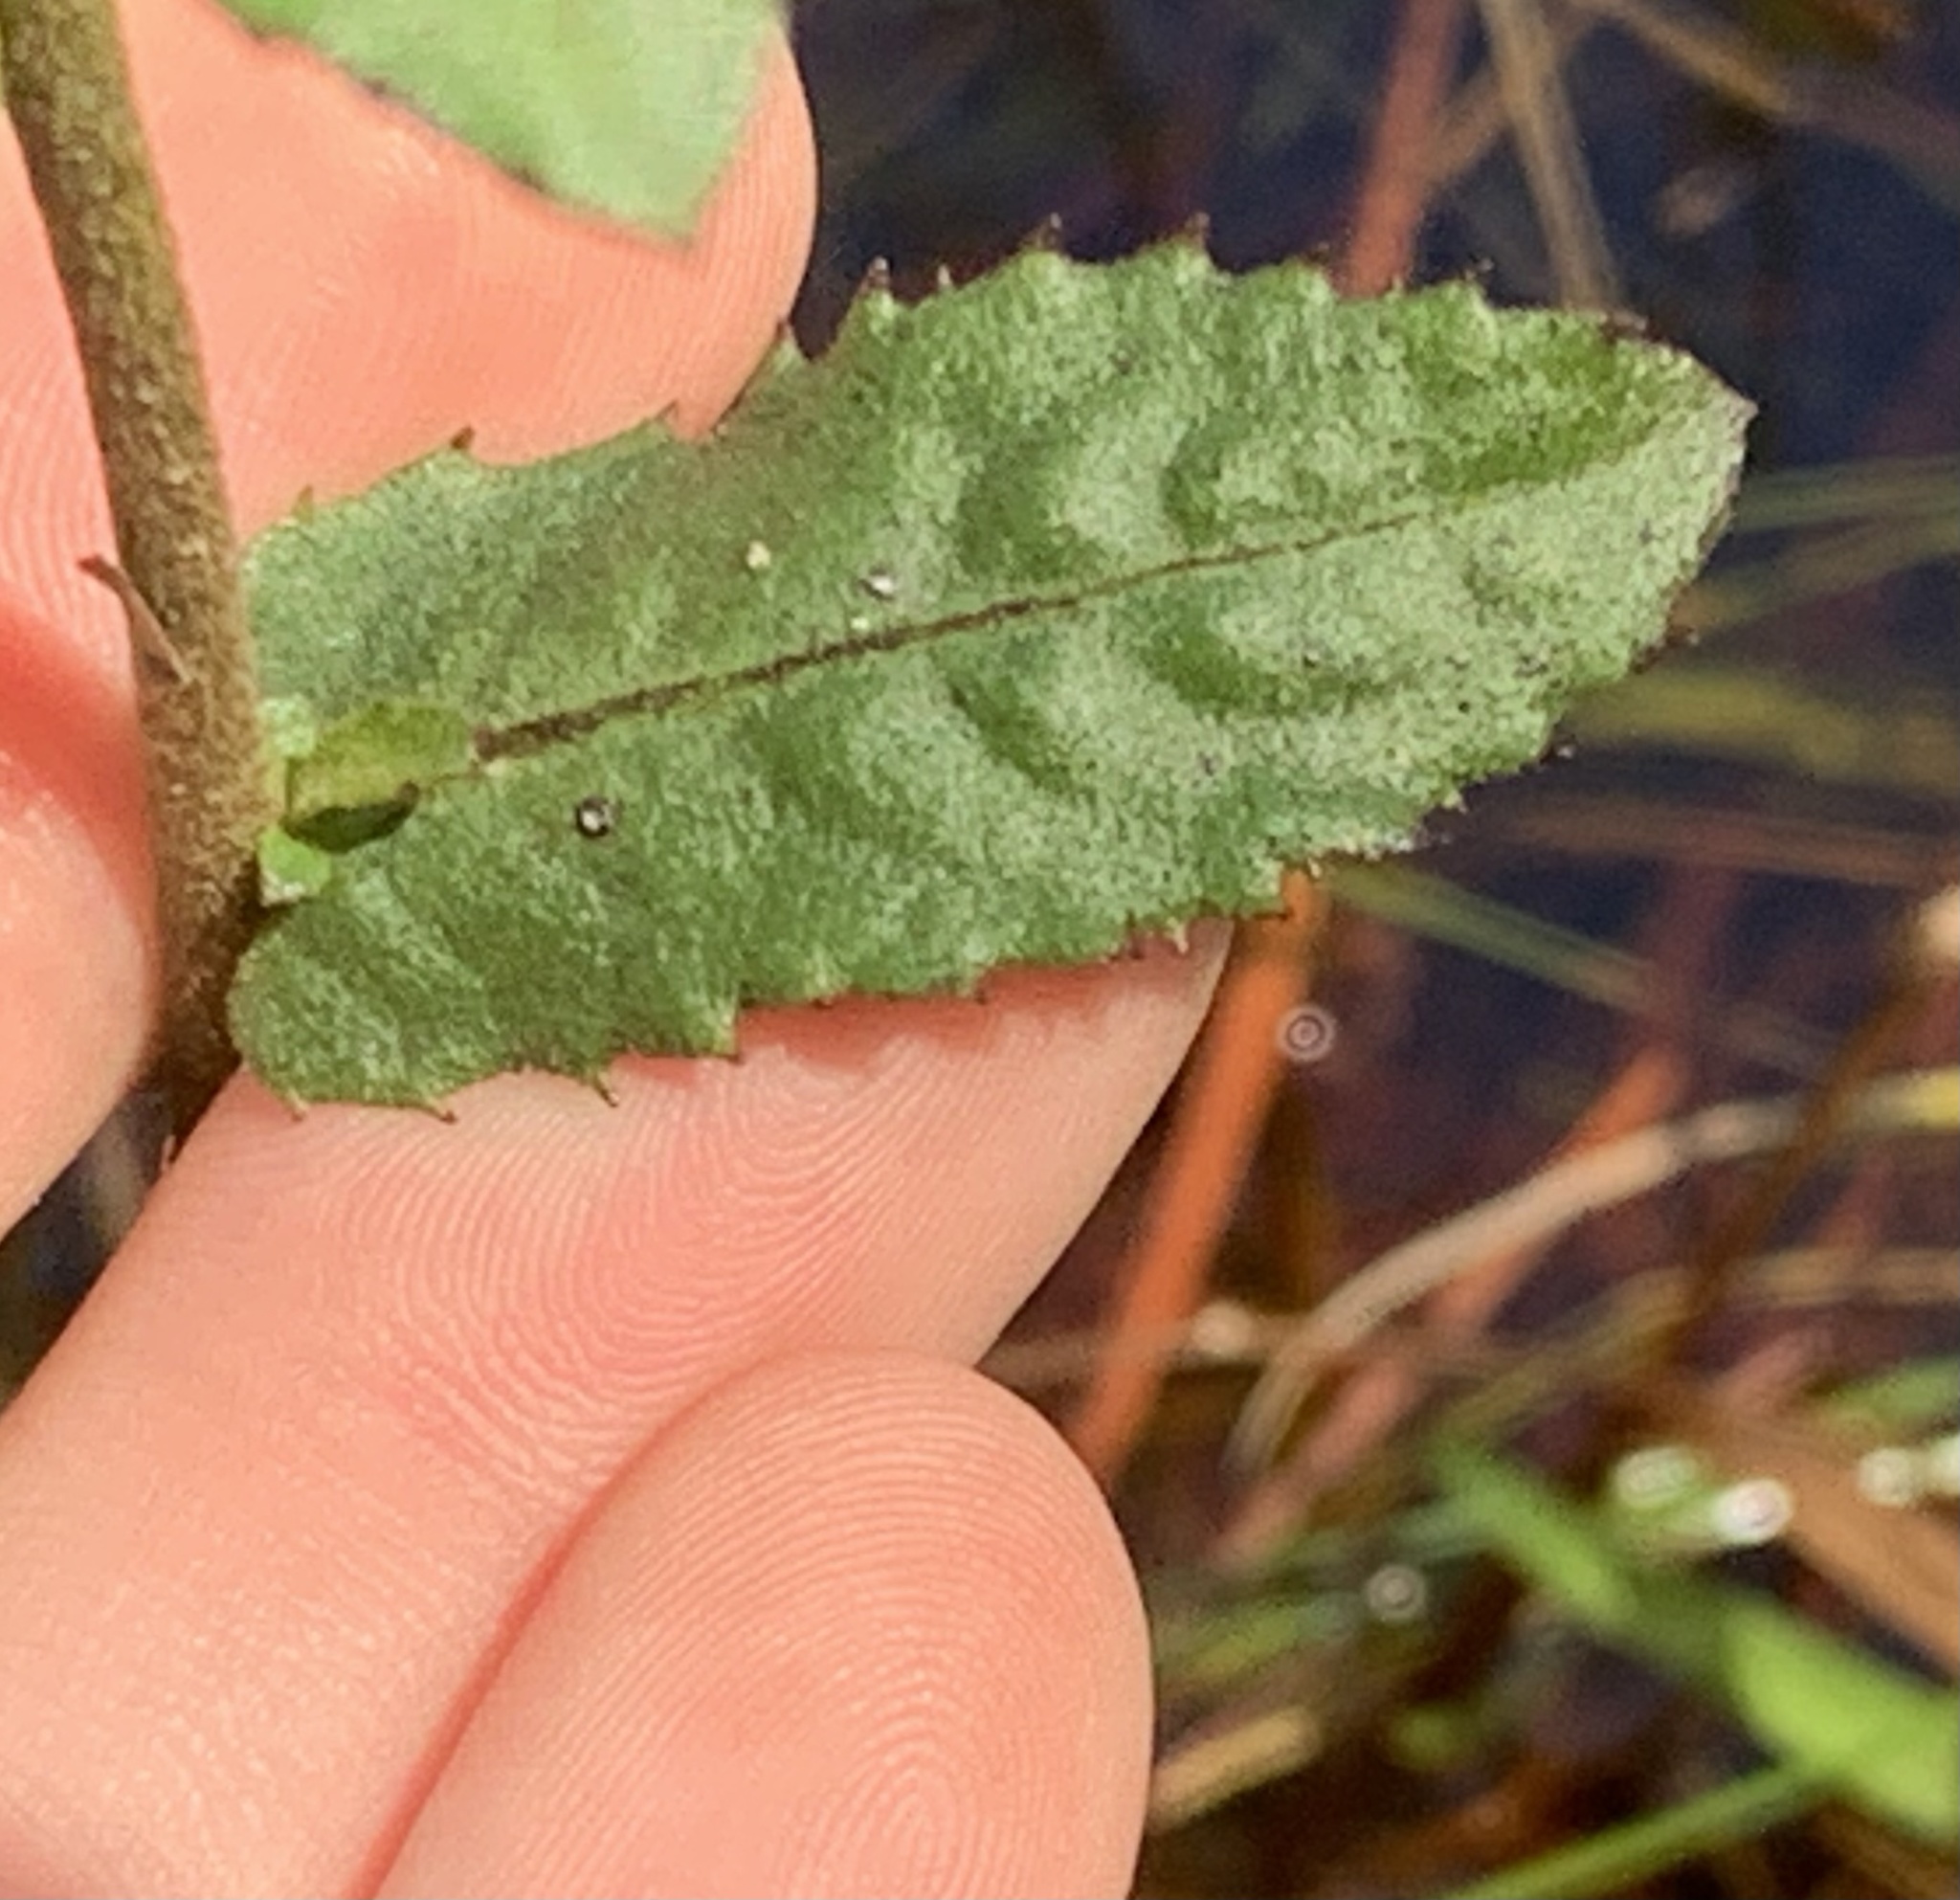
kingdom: Plantae
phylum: Tracheophyta
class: Magnoliopsida
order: Asterales
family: Asteraceae
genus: Pluchea
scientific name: Pluchea foetida
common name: Stinking camphorweed
